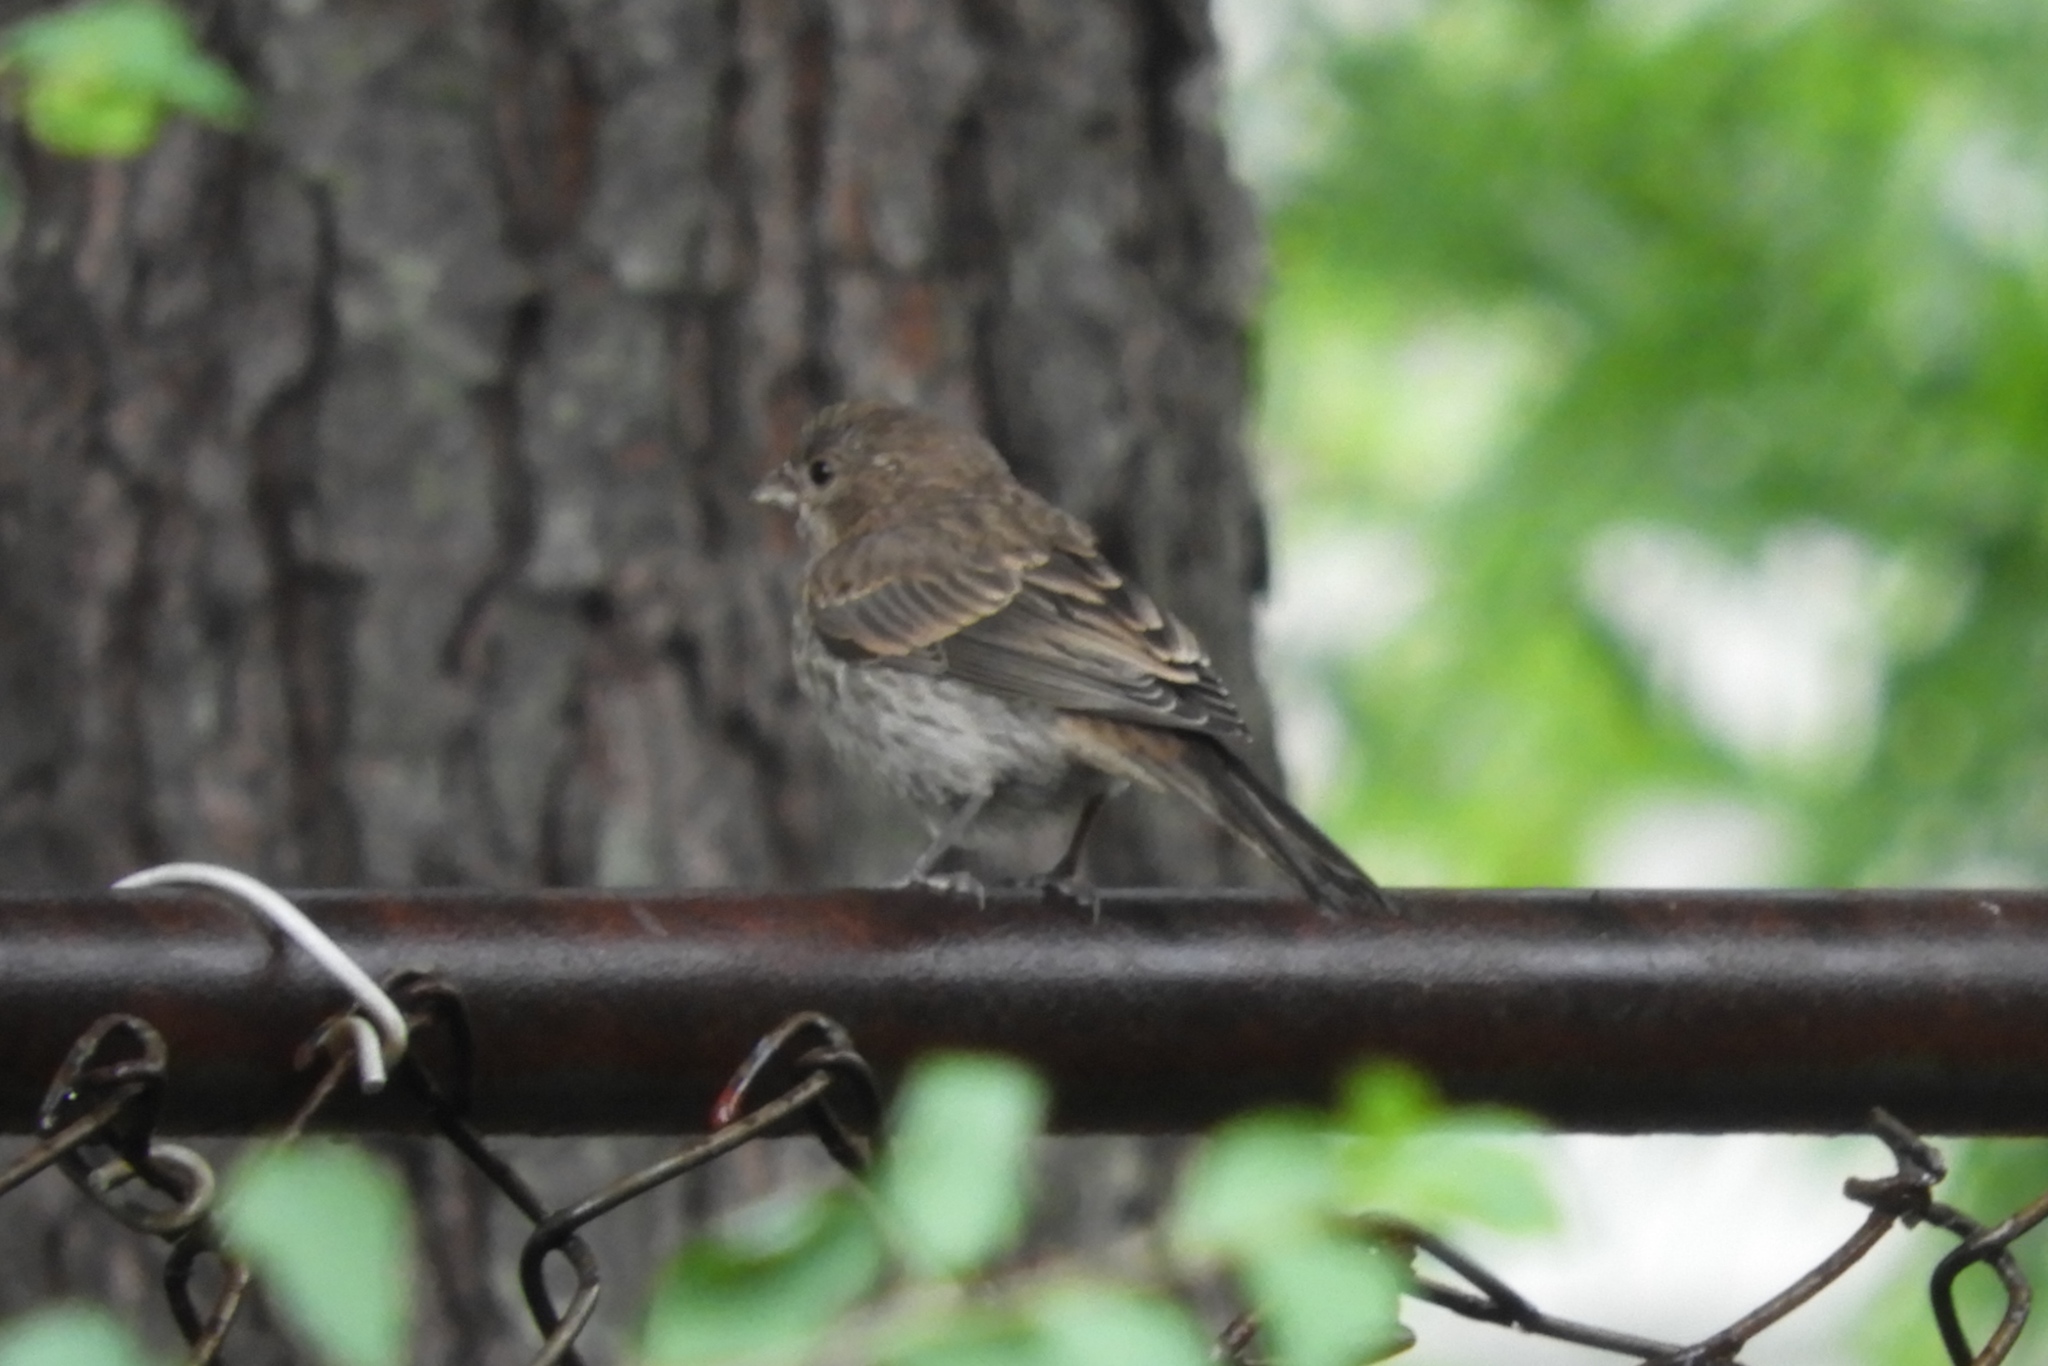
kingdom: Animalia
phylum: Chordata
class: Aves
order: Passeriformes
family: Fringillidae
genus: Haemorhous
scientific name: Haemorhous mexicanus
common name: House finch
